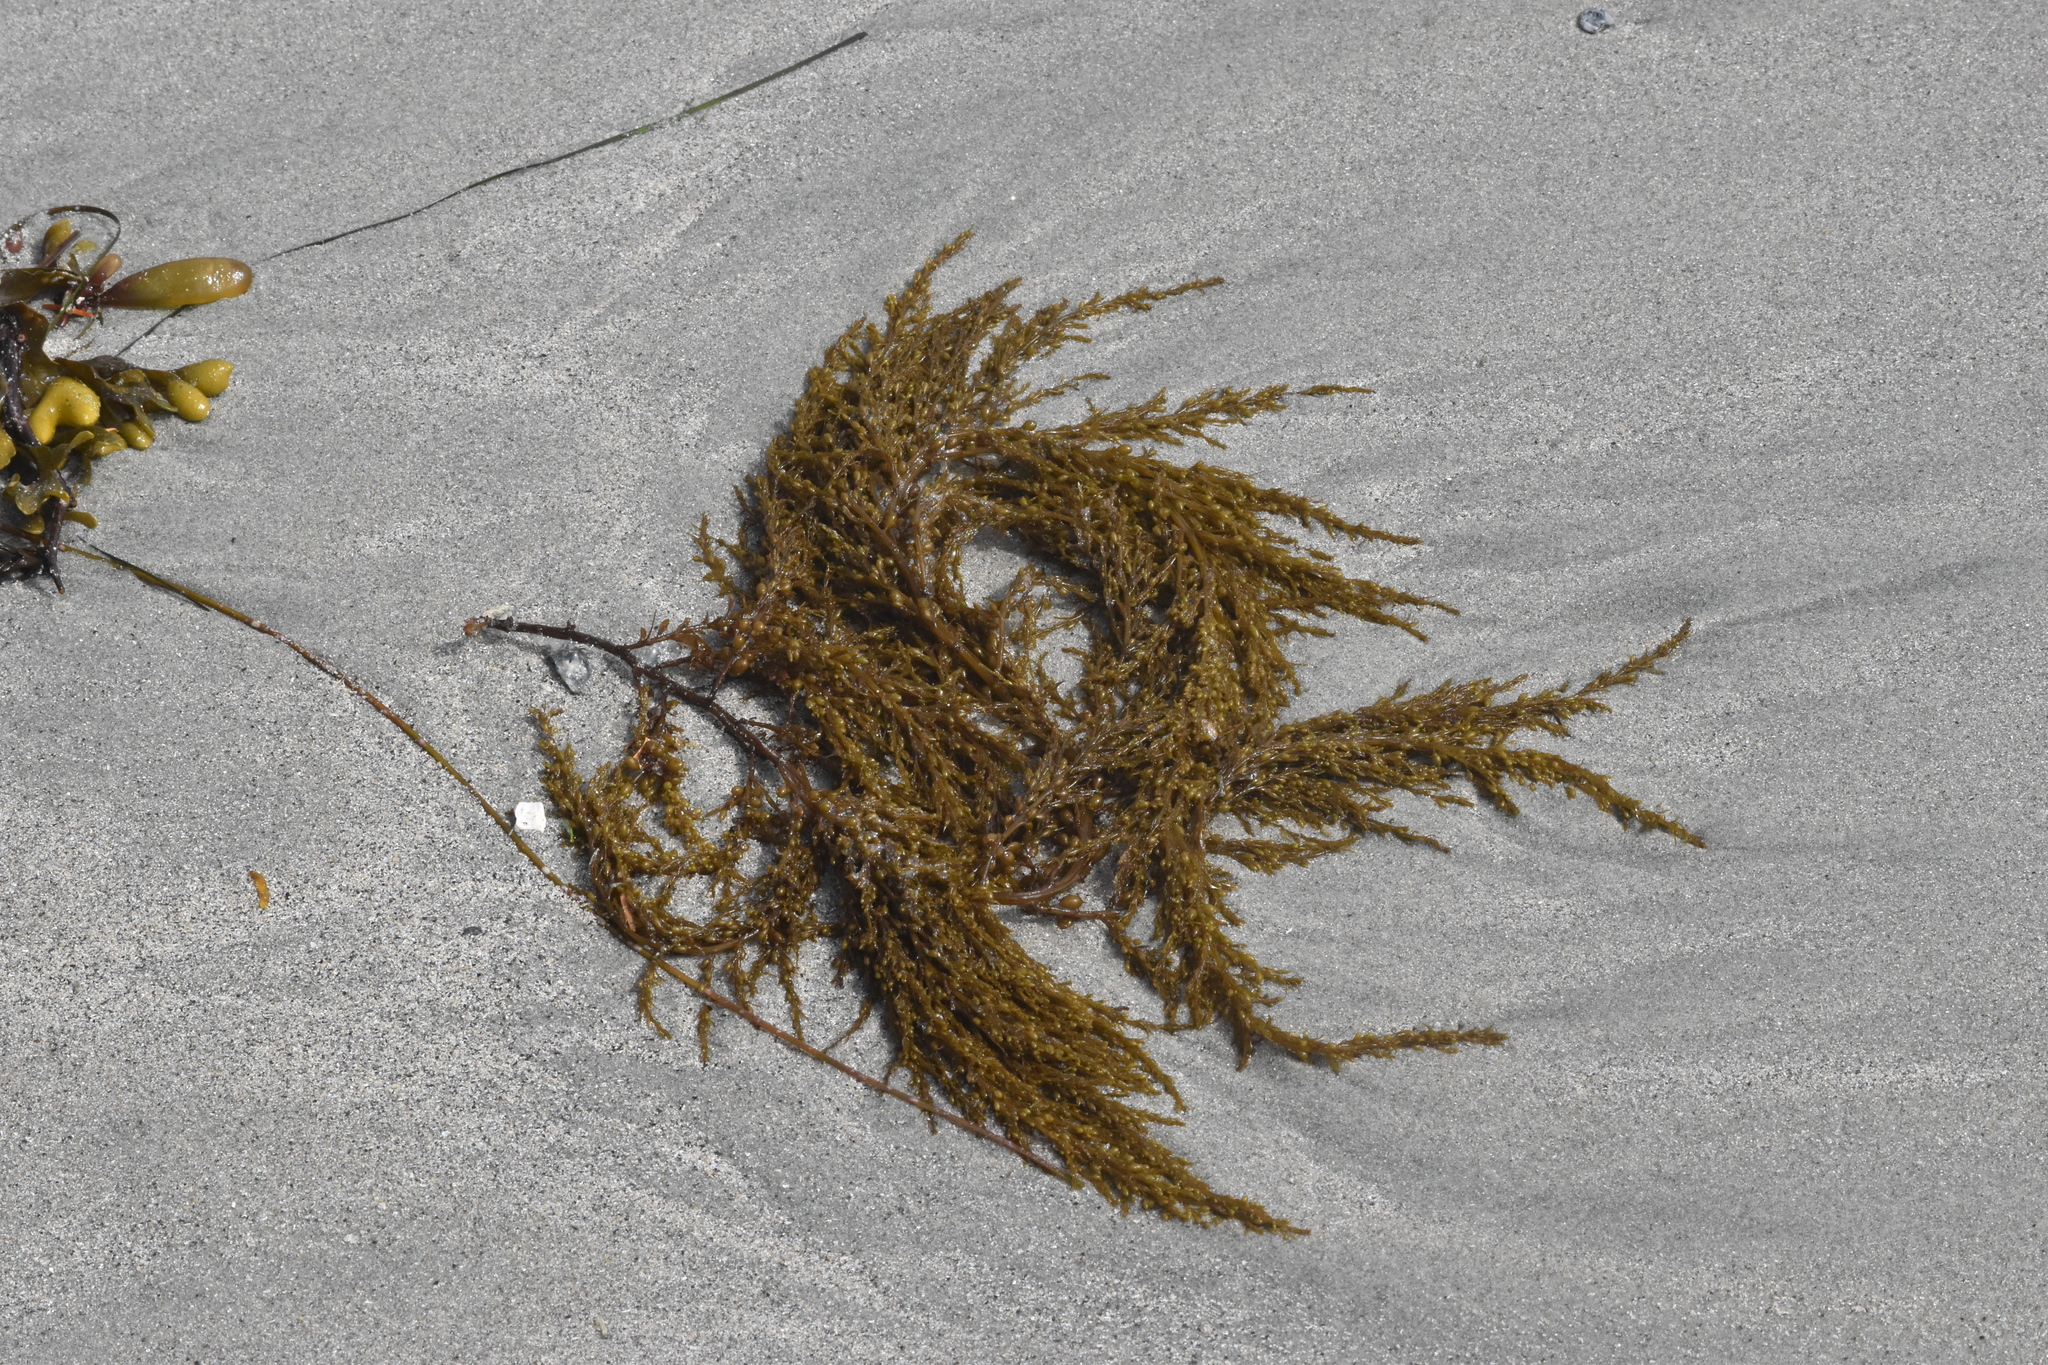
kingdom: Chromista
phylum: Ochrophyta
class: Phaeophyceae
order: Fucales
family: Sargassaceae
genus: Sargassum
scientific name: Sargassum muticum
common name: Japweed
